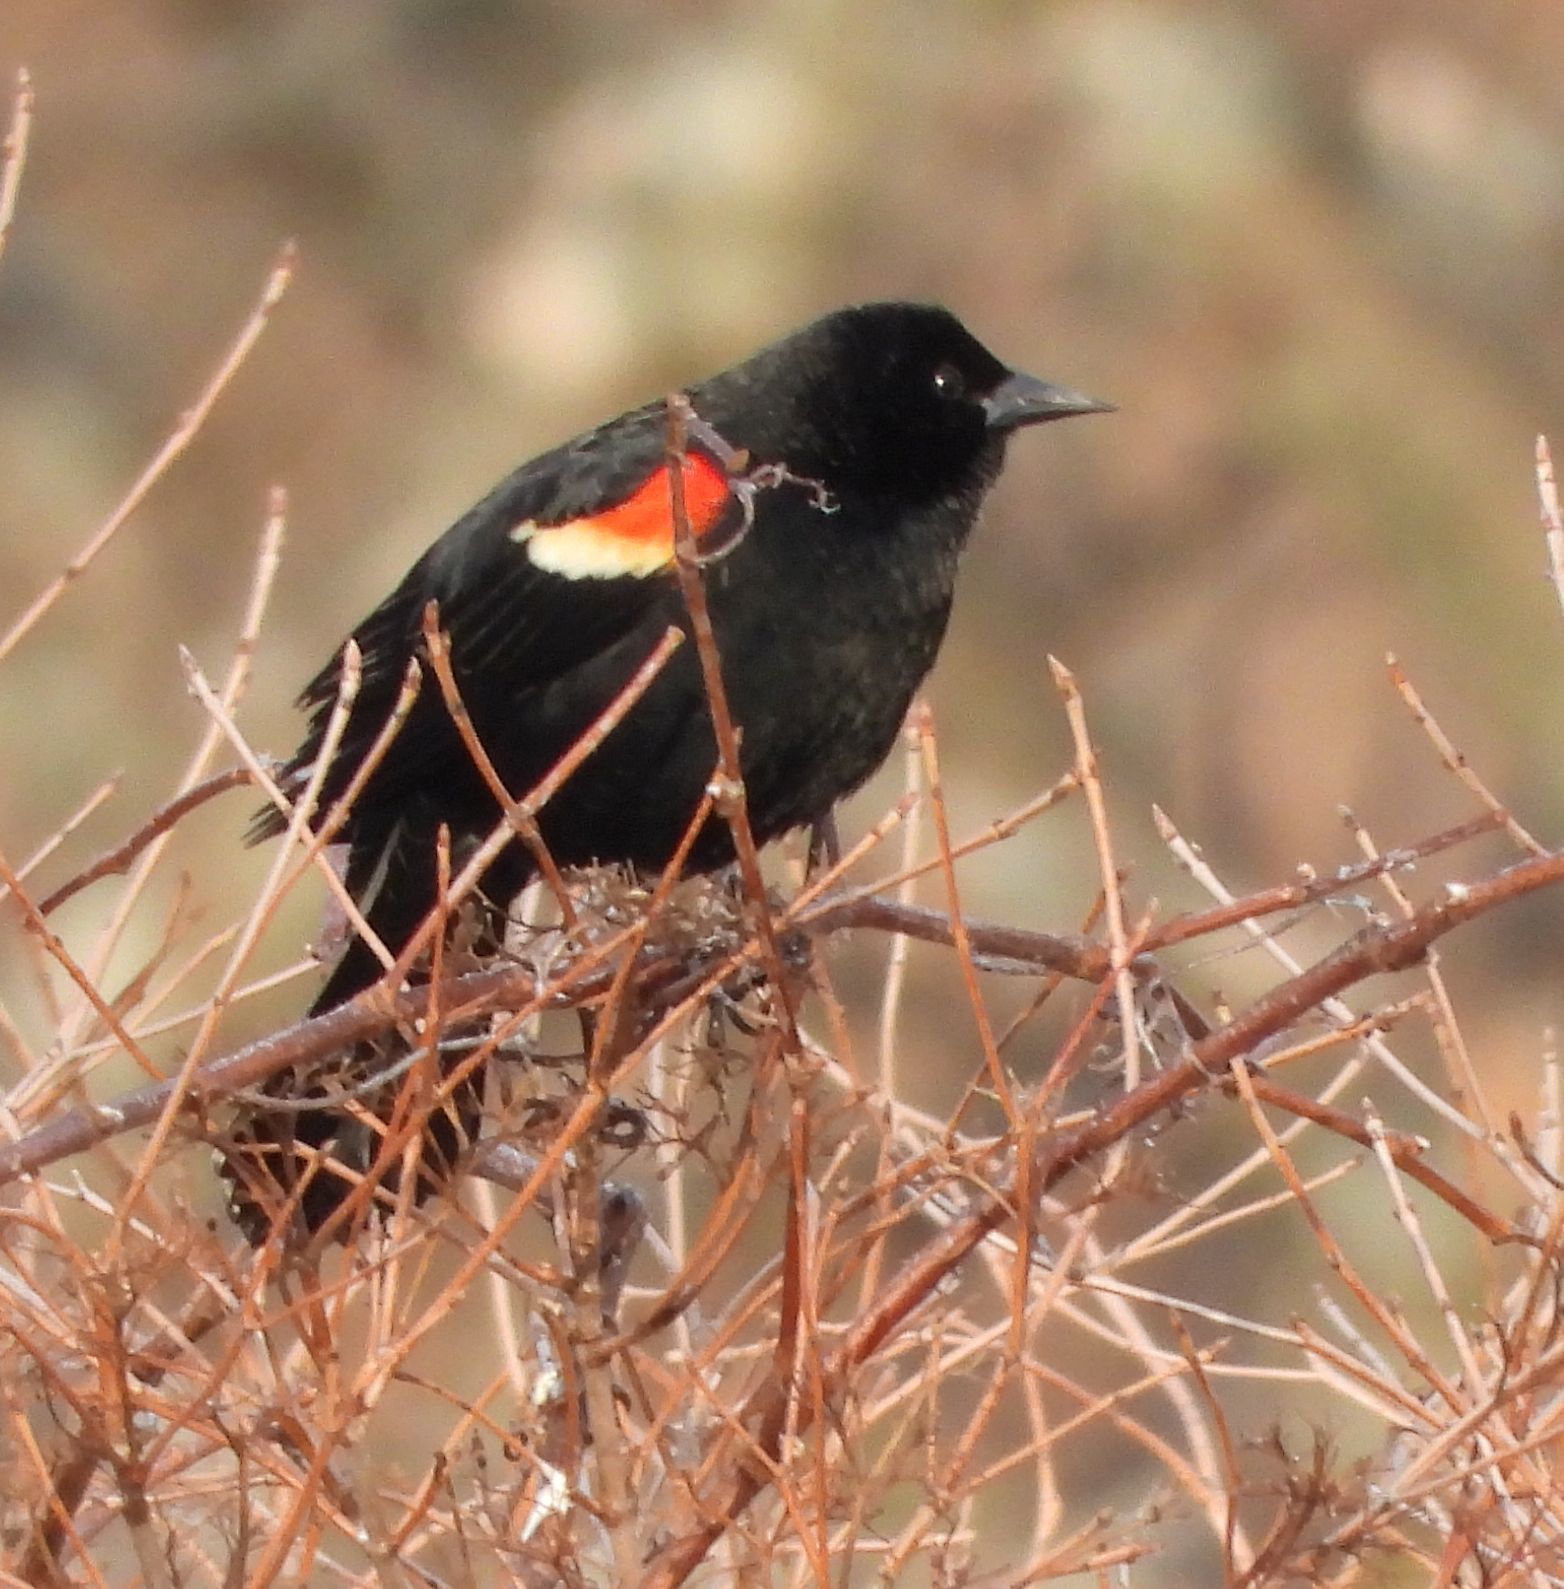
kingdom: Animalia
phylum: Chordata
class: Aves
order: Passeriformes
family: Icteridae
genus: Agelaius
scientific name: Agelaius phoeniceus
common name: Red-winged blackbird
